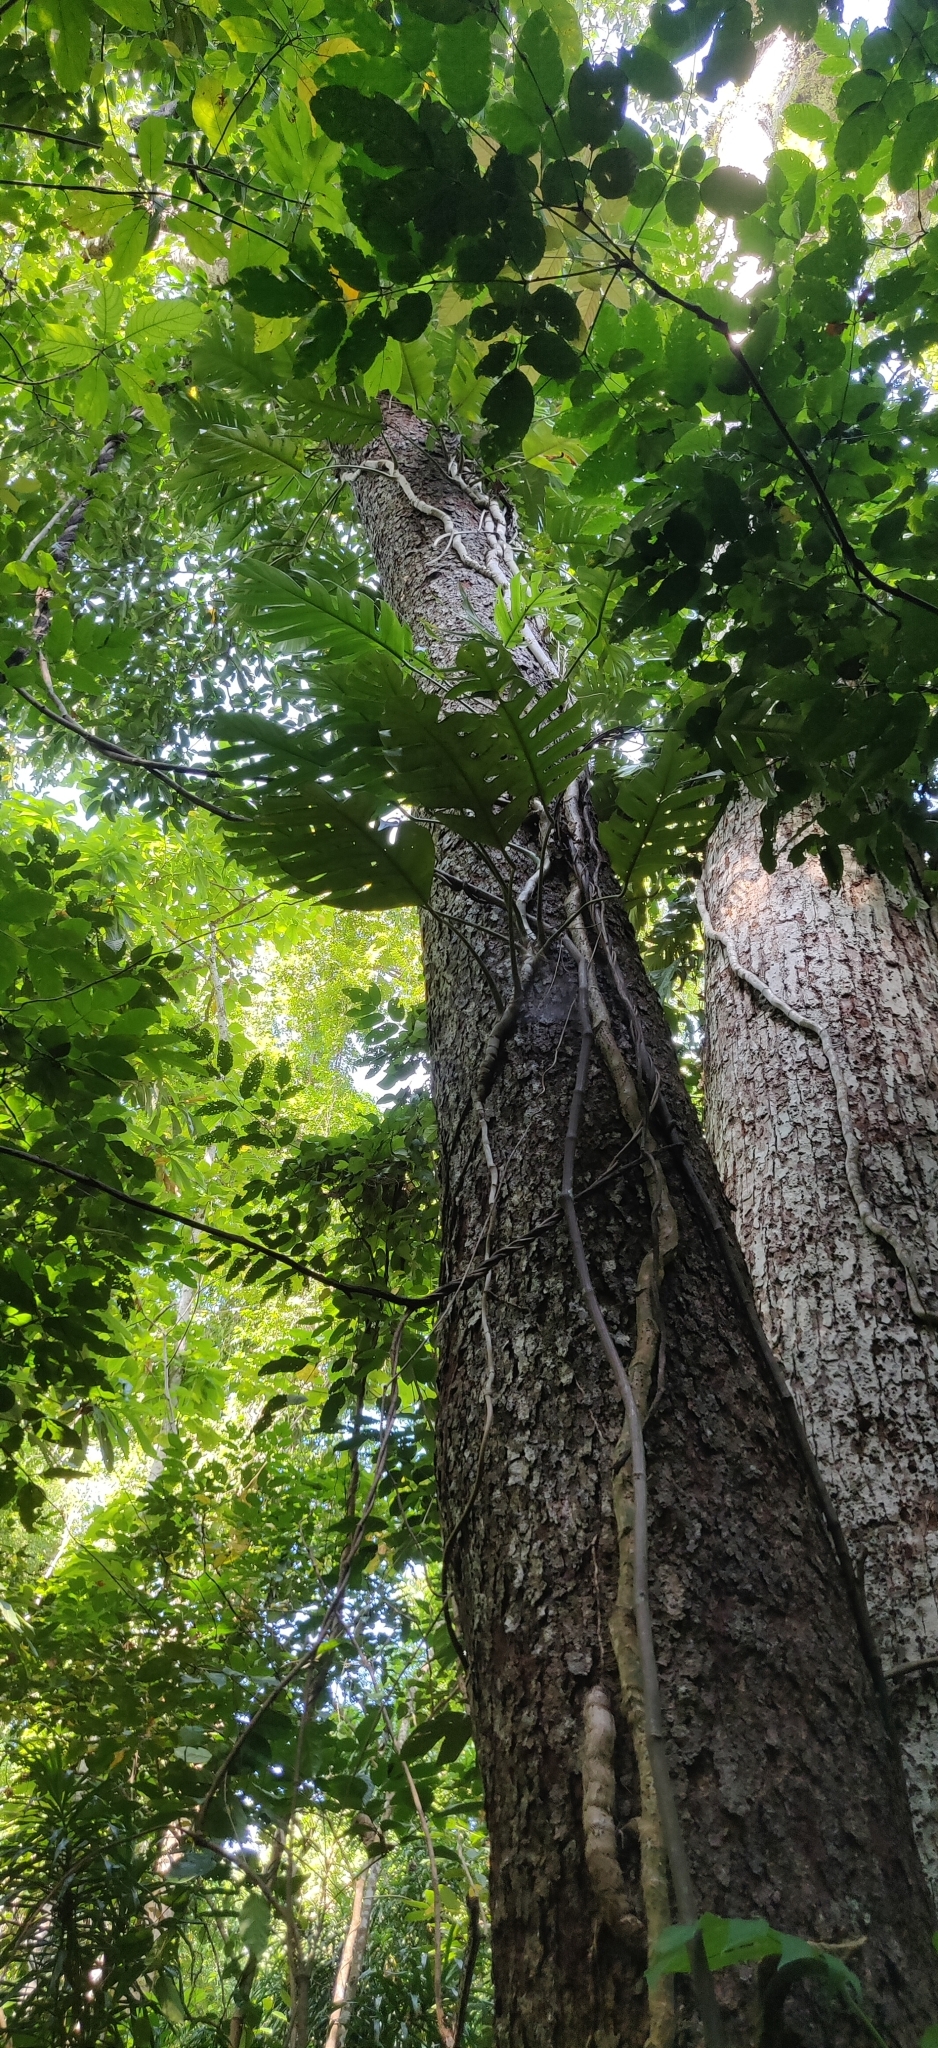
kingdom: Plantae
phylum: Tracheophyta
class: Magnoliopsida
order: Rosales
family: Moraceae
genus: Artocarpus
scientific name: Artocarpus lacucha
